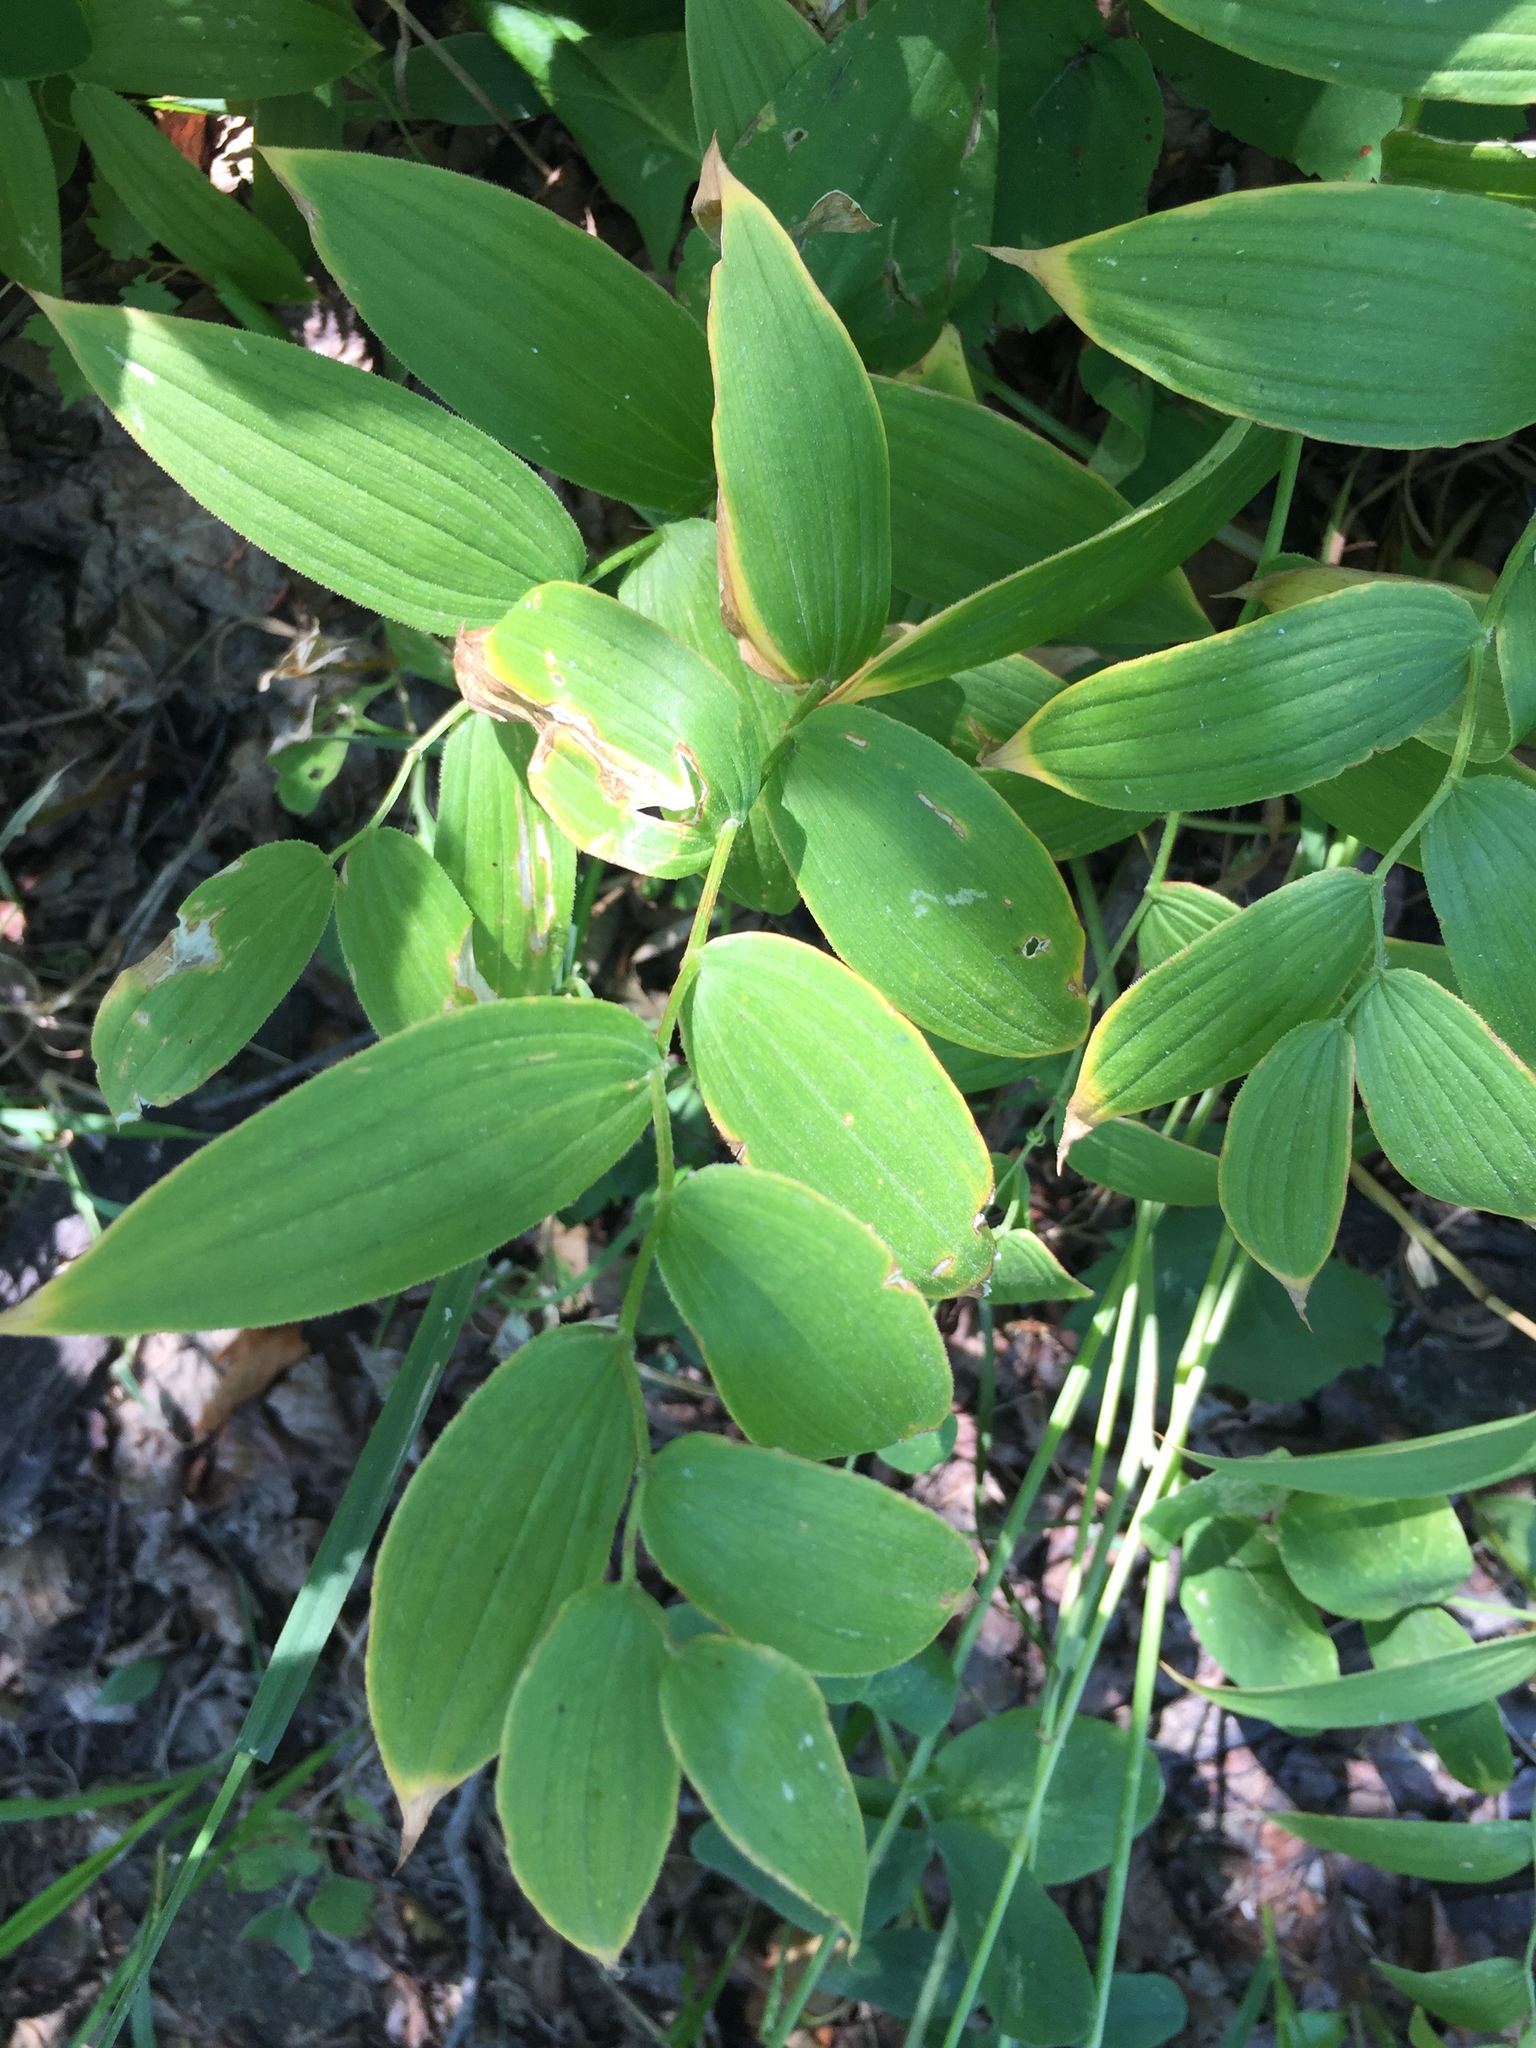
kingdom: Plantae
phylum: Tracheophyta
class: Liliopsida
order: Liliales
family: Liliaceae
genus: Streptopus
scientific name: Streptopus lanceolatus
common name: Rose mandarin
